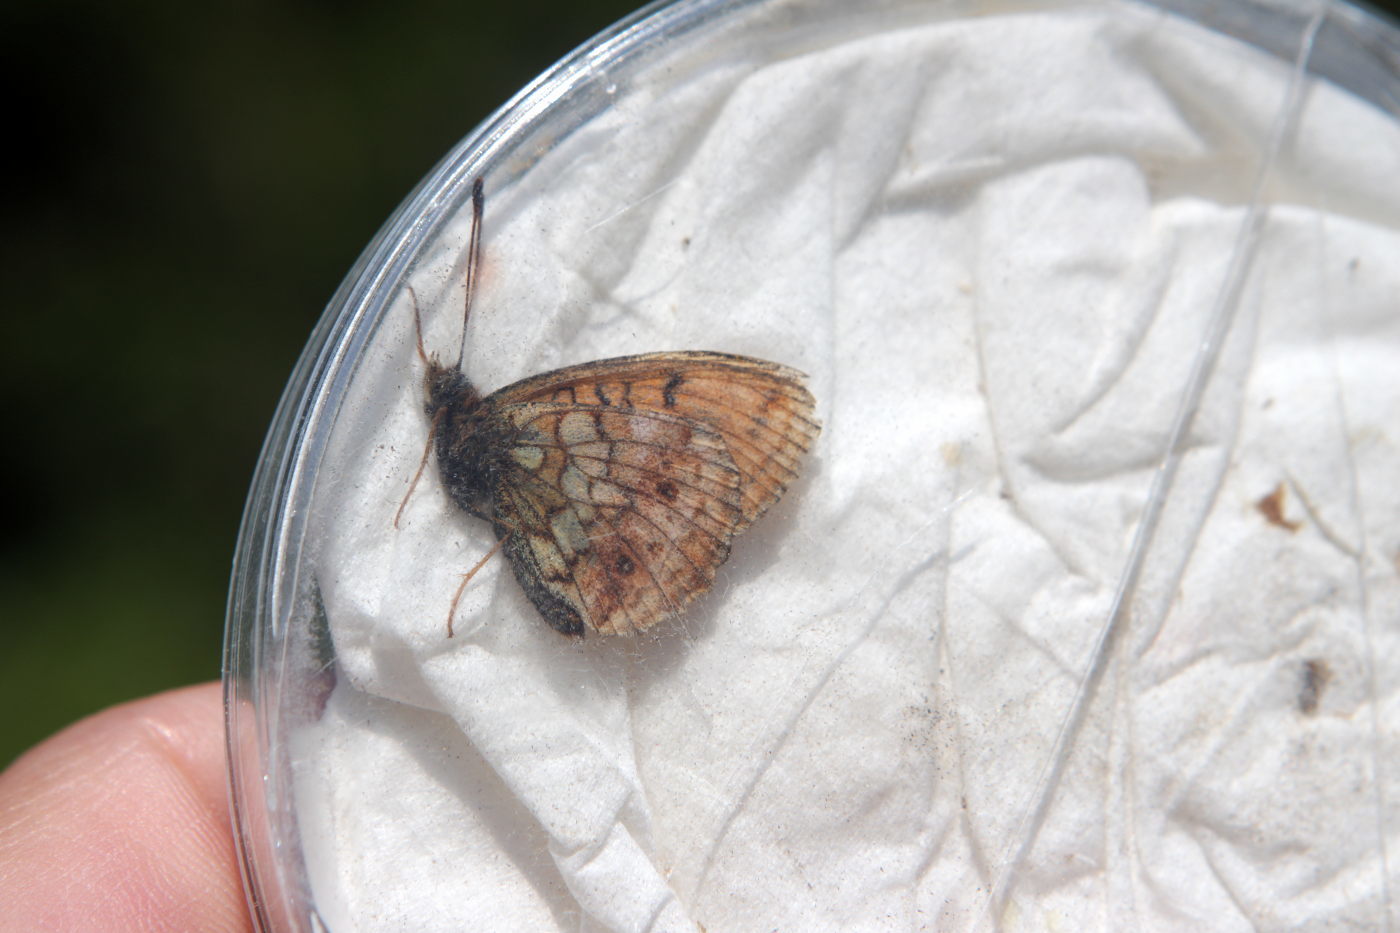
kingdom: Animalia
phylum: Arthropoda
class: Insecta
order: Lepidoptera
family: Nymphalidae
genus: Brenthis
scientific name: Brenthis ino
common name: Lesser marbled fritillary
